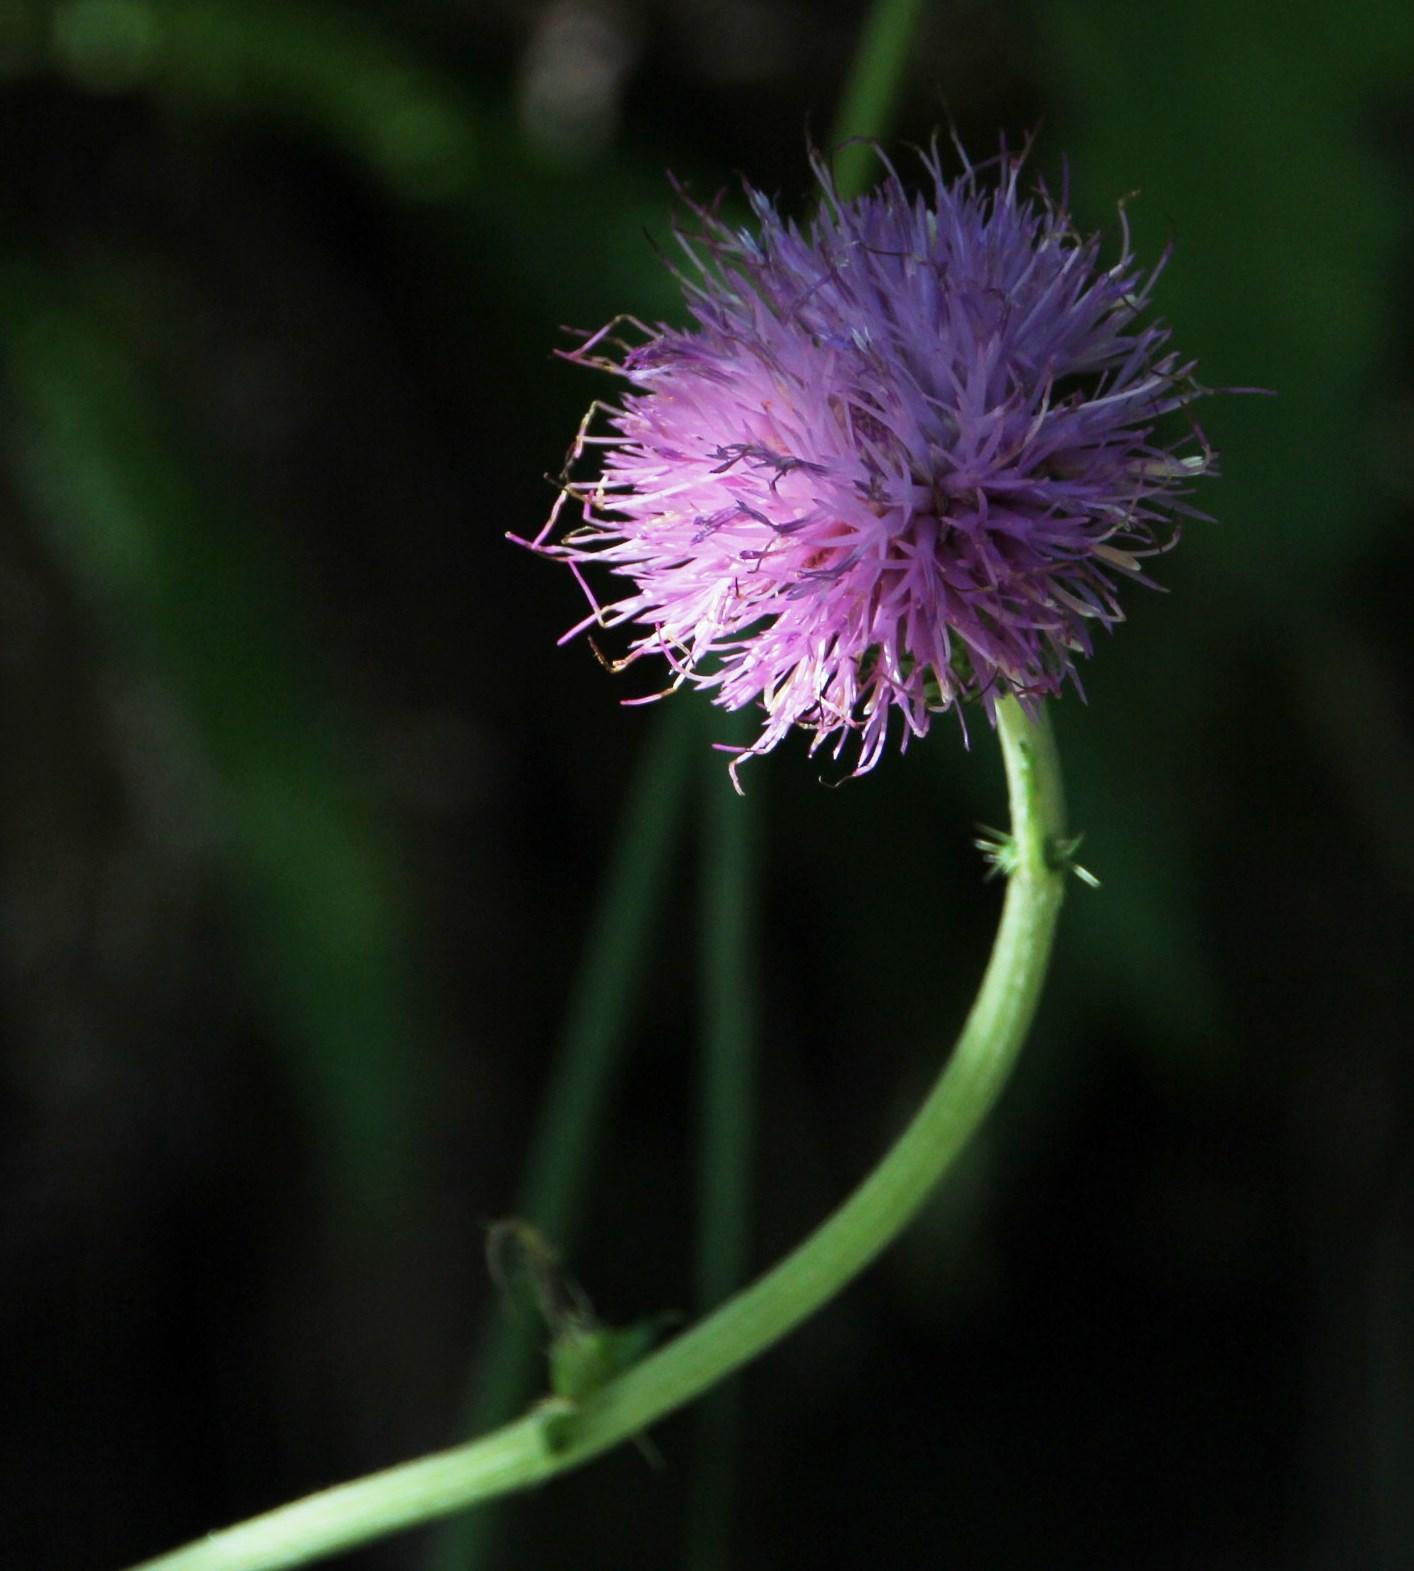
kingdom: Plantae
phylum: Tracheophyta
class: Magnoliopsida
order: Asterales
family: Asteraceae
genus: Cirsium
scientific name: Cirsium filipendulum
